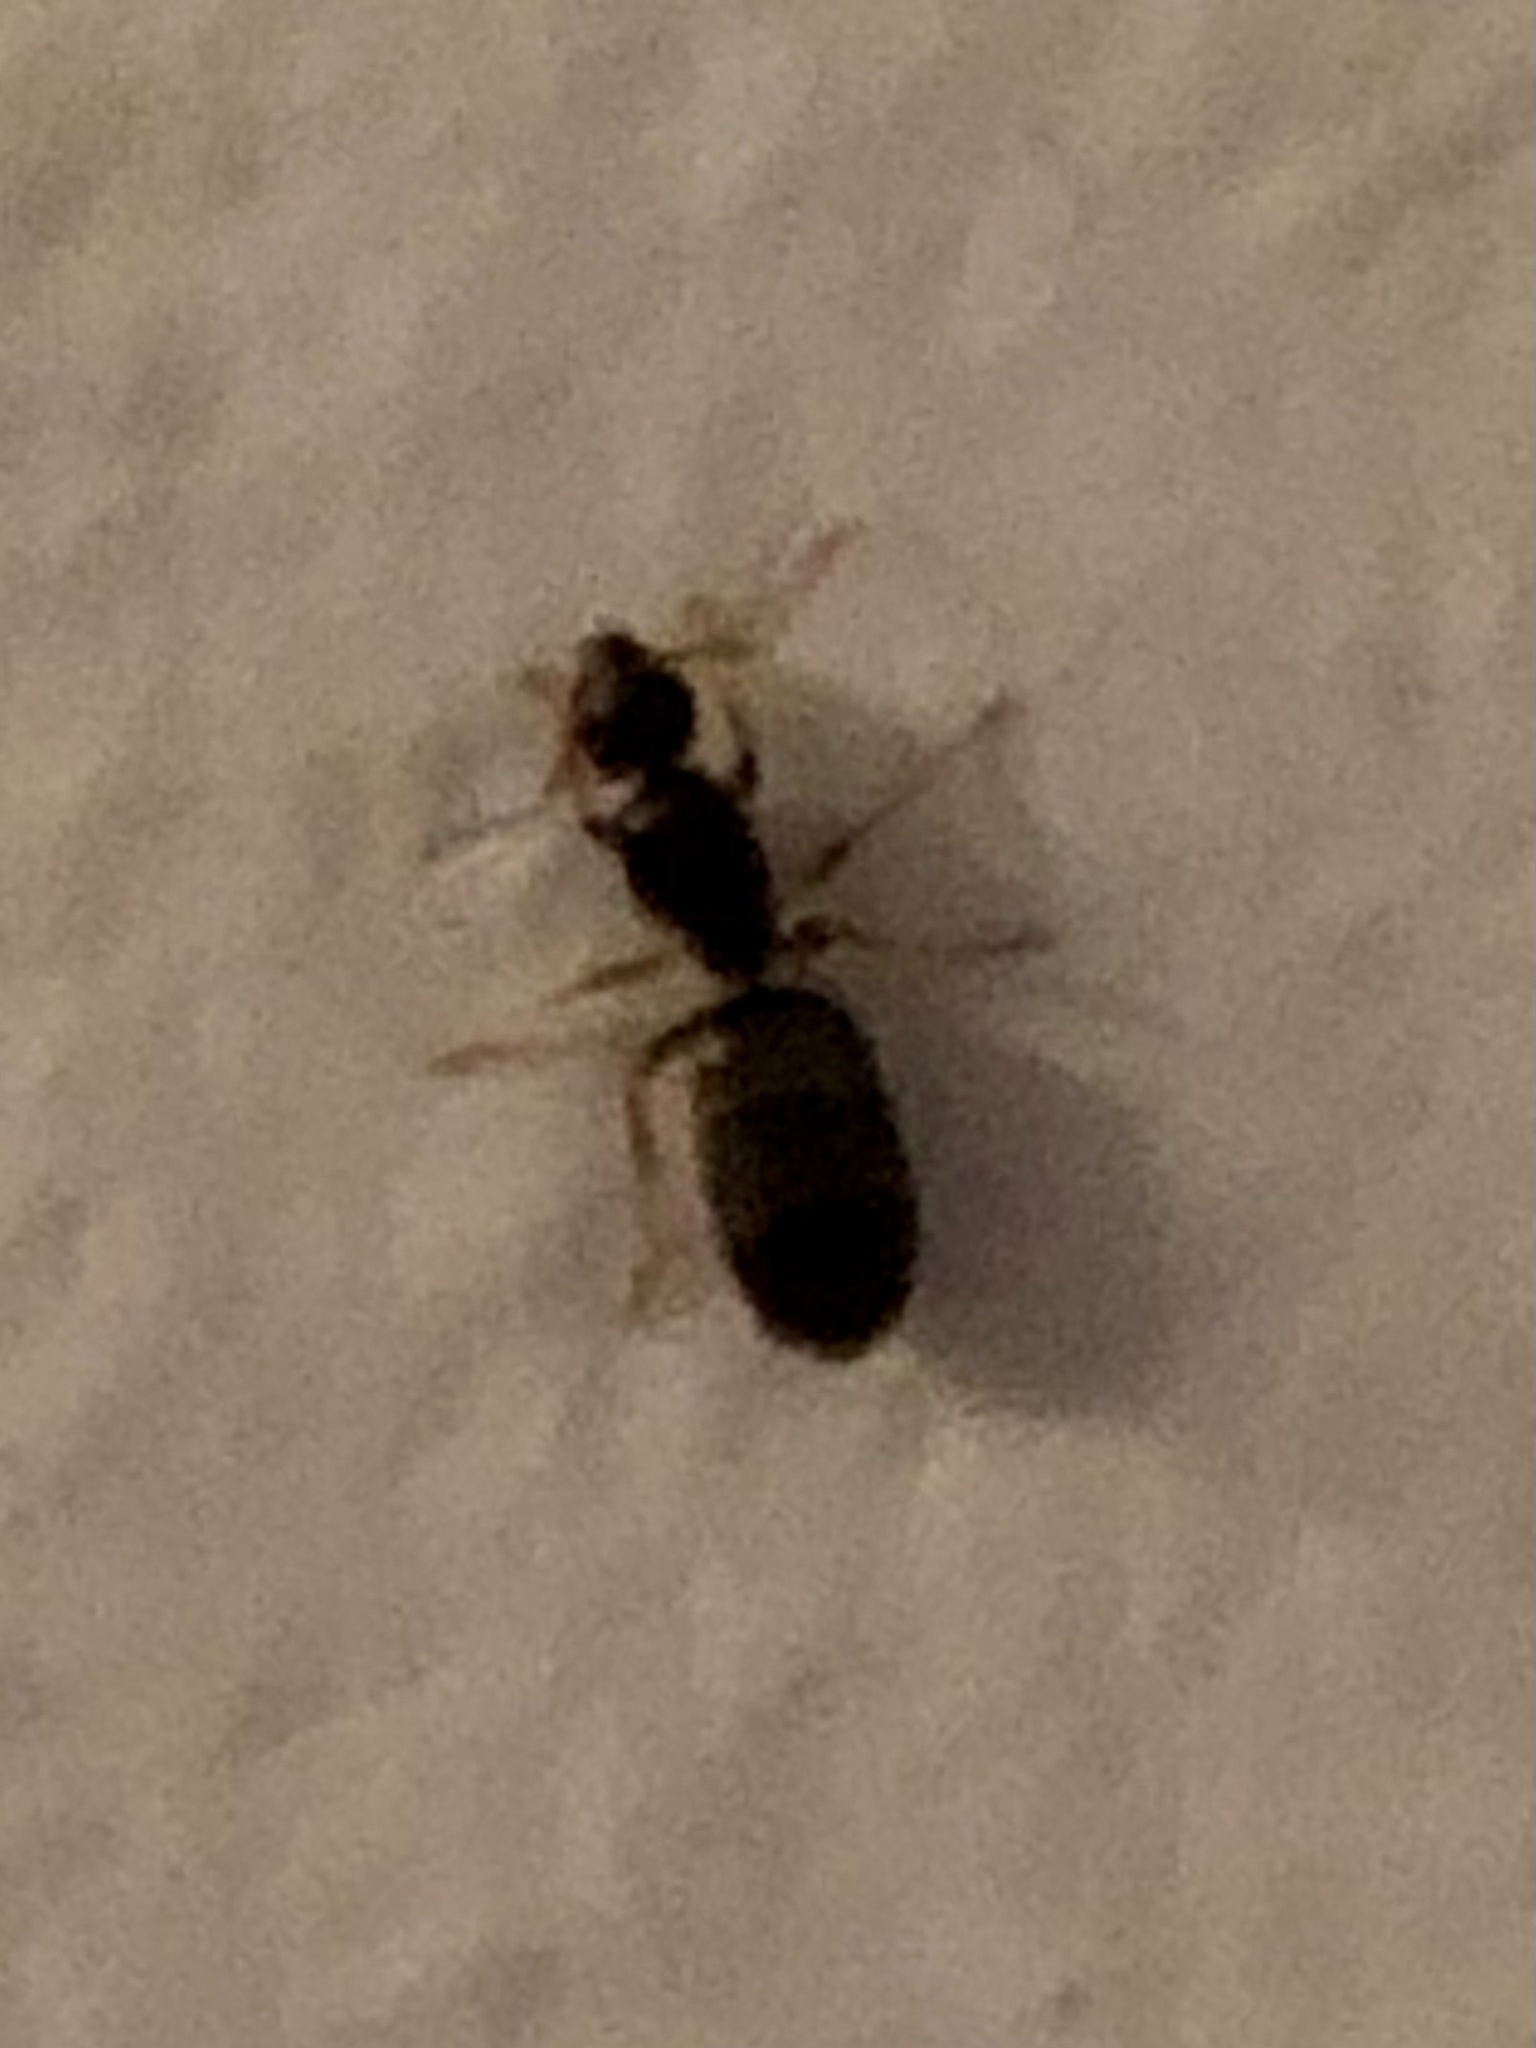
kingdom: Animalia
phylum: Arthropoda
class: Insecta
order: Hymenoptera
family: Formicidae
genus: Tapinoma
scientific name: Tapinoma sessile
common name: Odorous house ant
